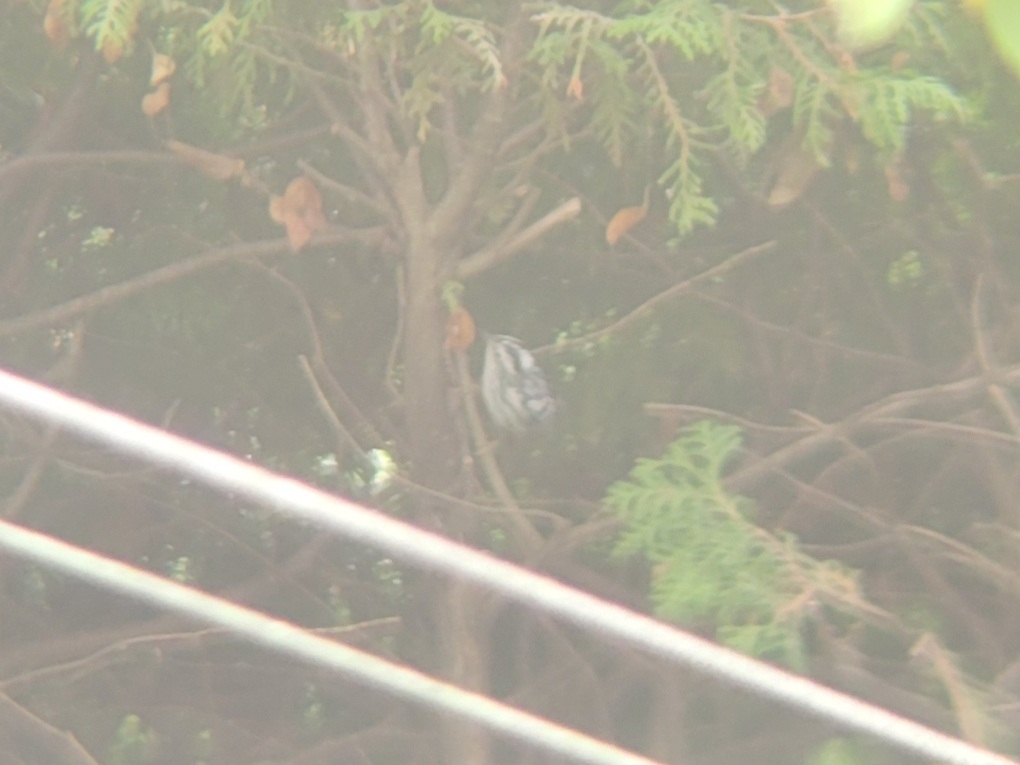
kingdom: Animalia
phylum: Chordata
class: Aves
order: Passeriformes
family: Parulidae
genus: Mniotilta
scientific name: Mniotilta varia
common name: Black-and-white warbler
